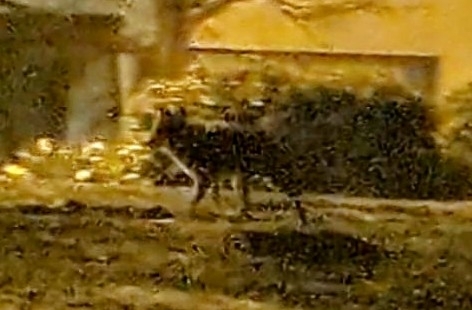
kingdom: Animalia
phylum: Chordata
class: Mammalia
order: Carnivora
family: Canidae
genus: Canis
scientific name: Canis latrans
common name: Coyote
